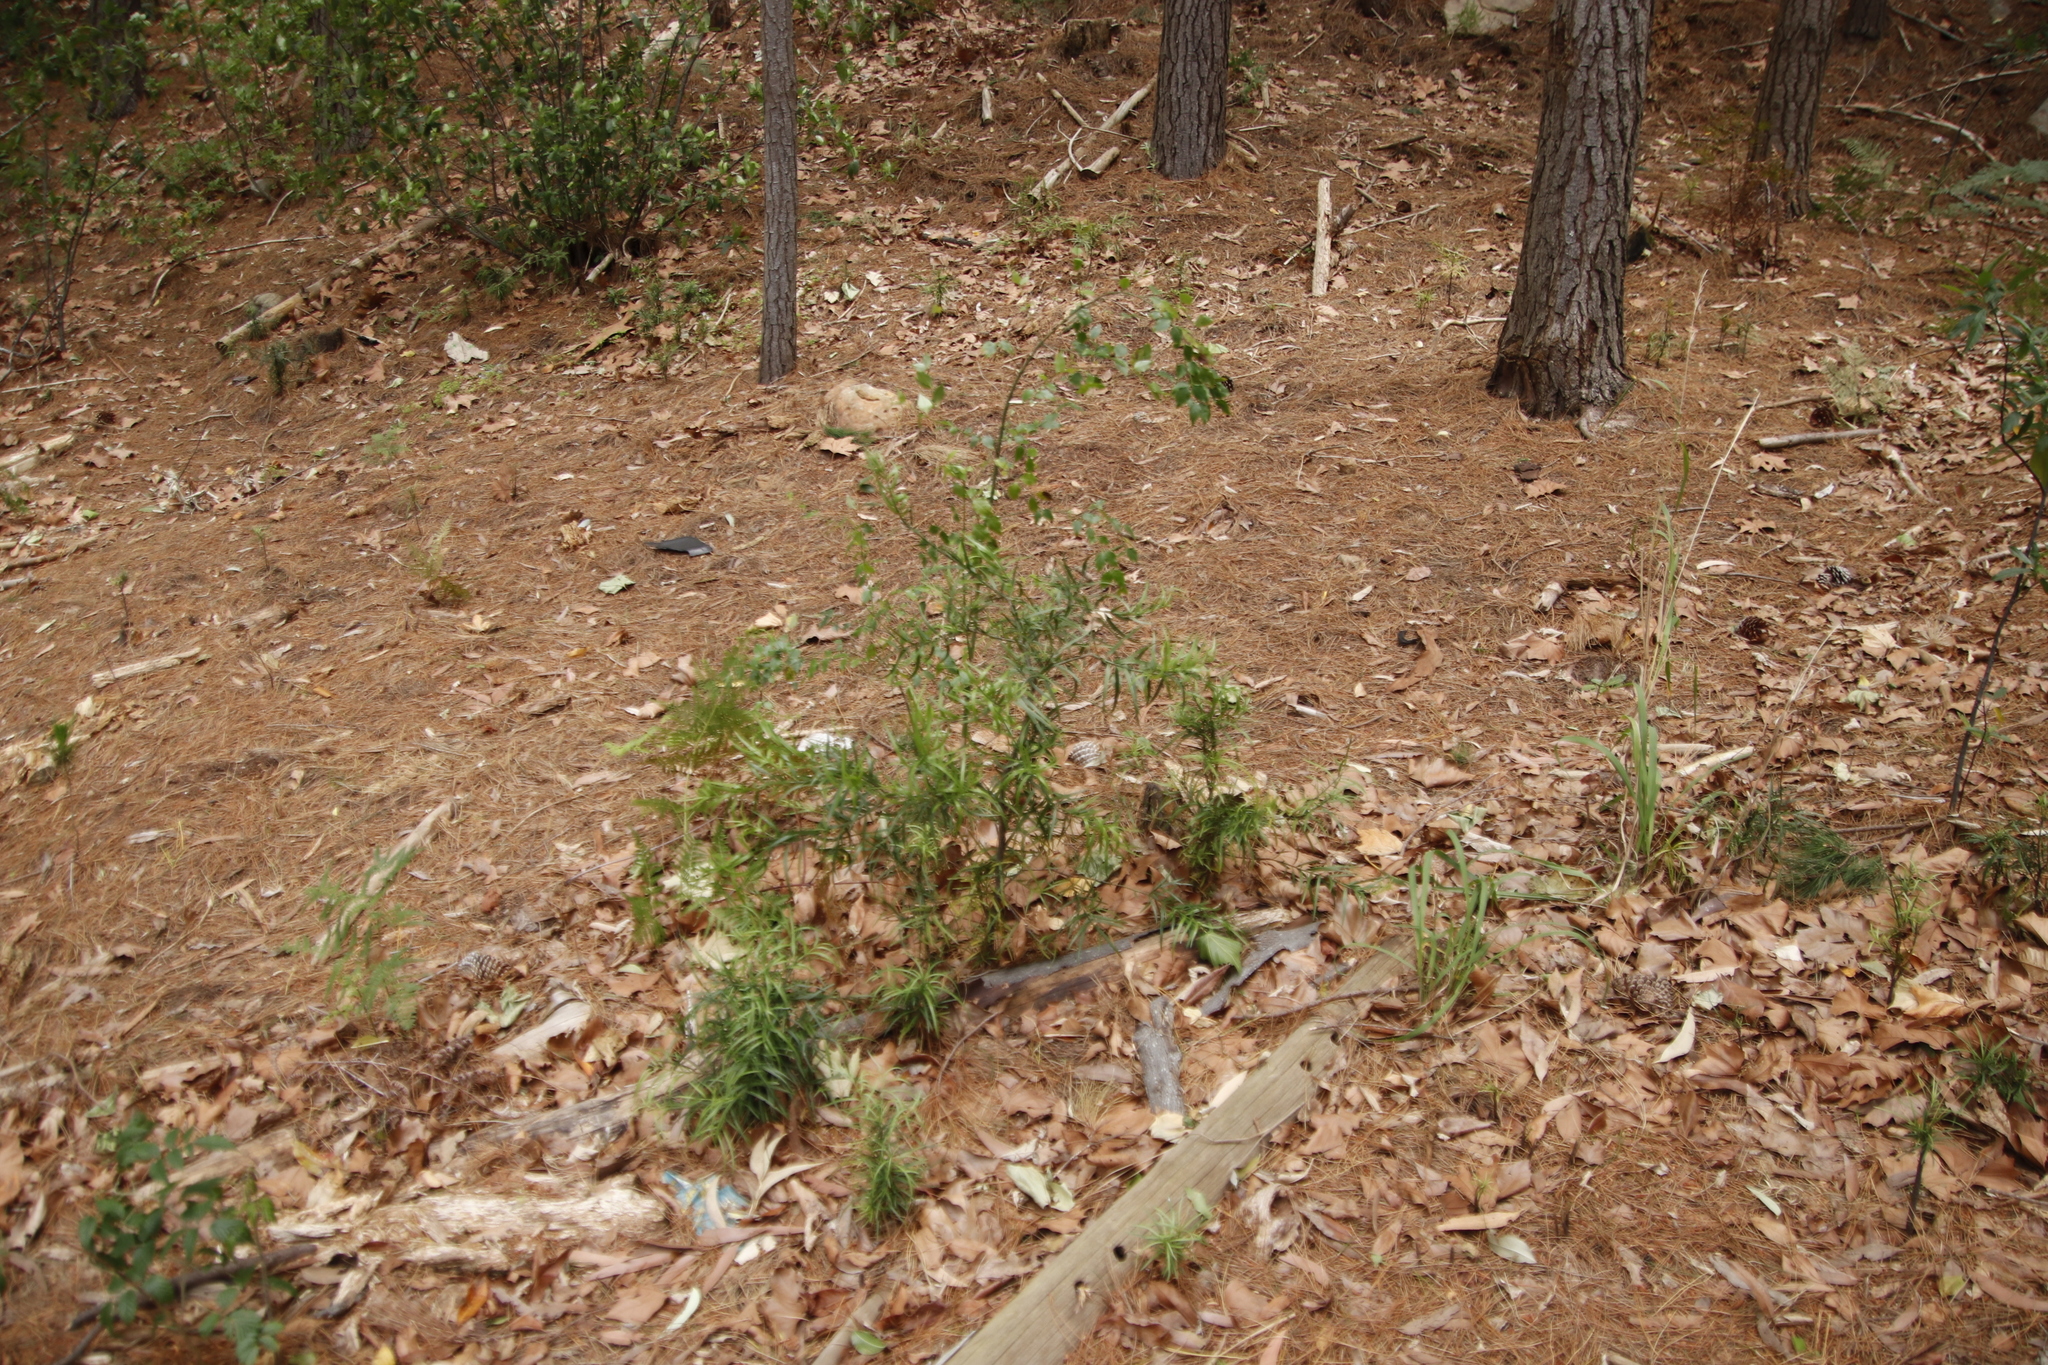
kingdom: Plantae
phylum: Tracheophyta
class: Pinopsida
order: Pinales
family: Podocarpaceae
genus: Afrocarpus
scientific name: Afrocarpus falcatus
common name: Bastard yellowwood
